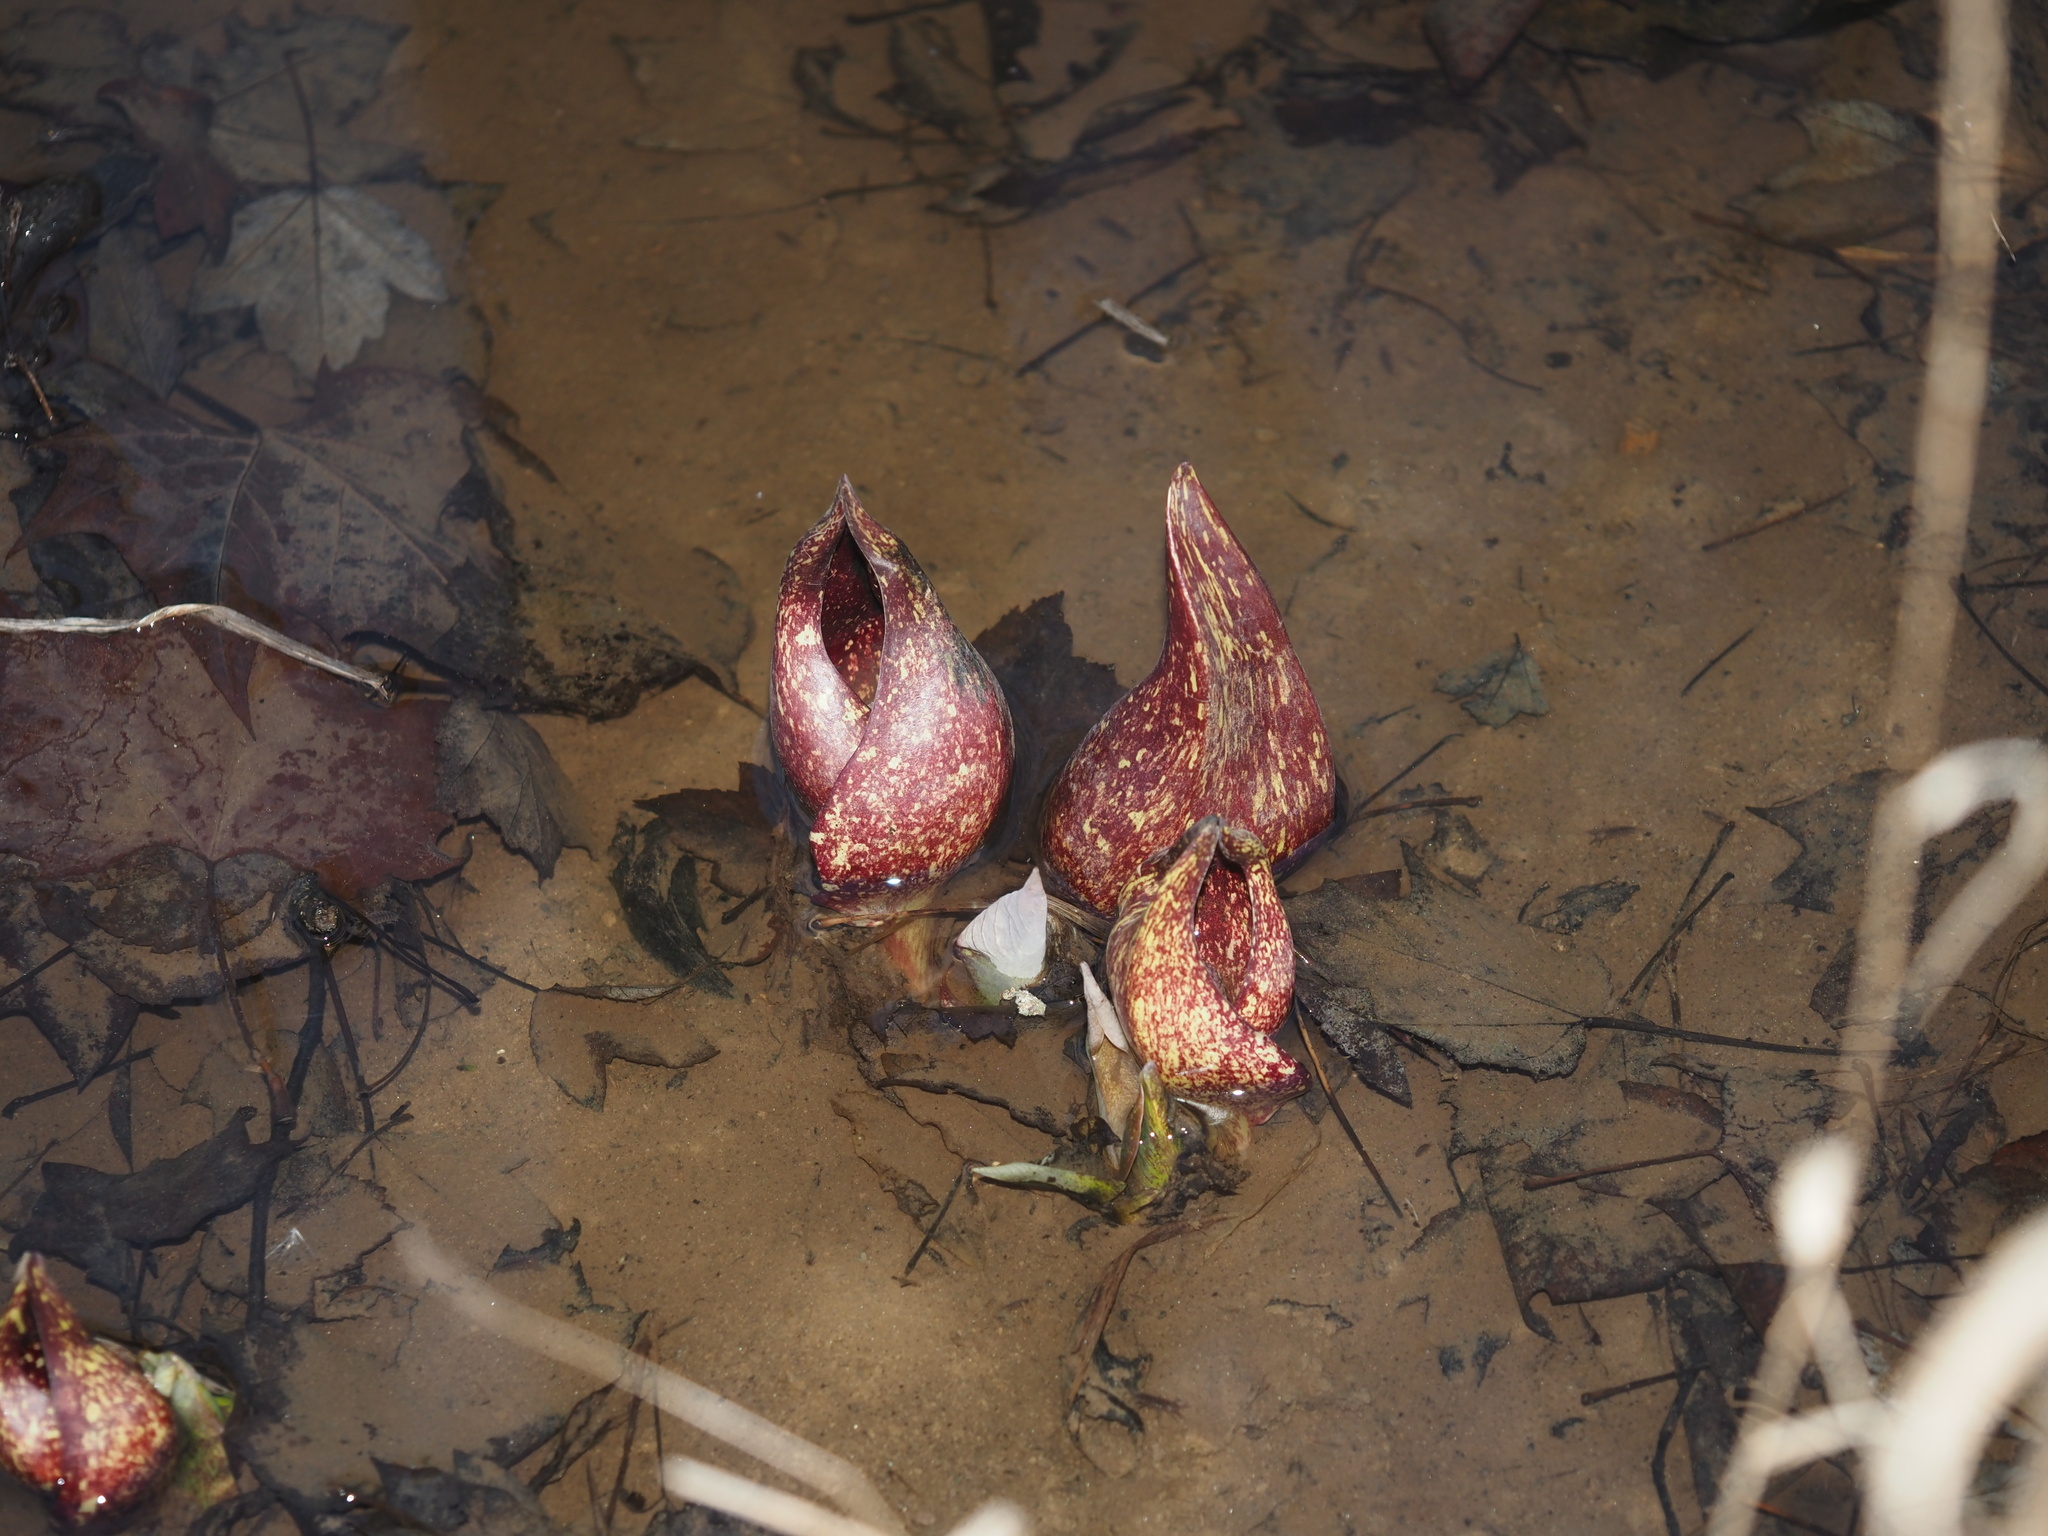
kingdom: Plantae
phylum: Tracheophyta
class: Liliopsida
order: Alismatales
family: Araceae
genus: Symplocarpus
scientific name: Symplocarpus foetidus
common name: Eastern skunk cabbage
